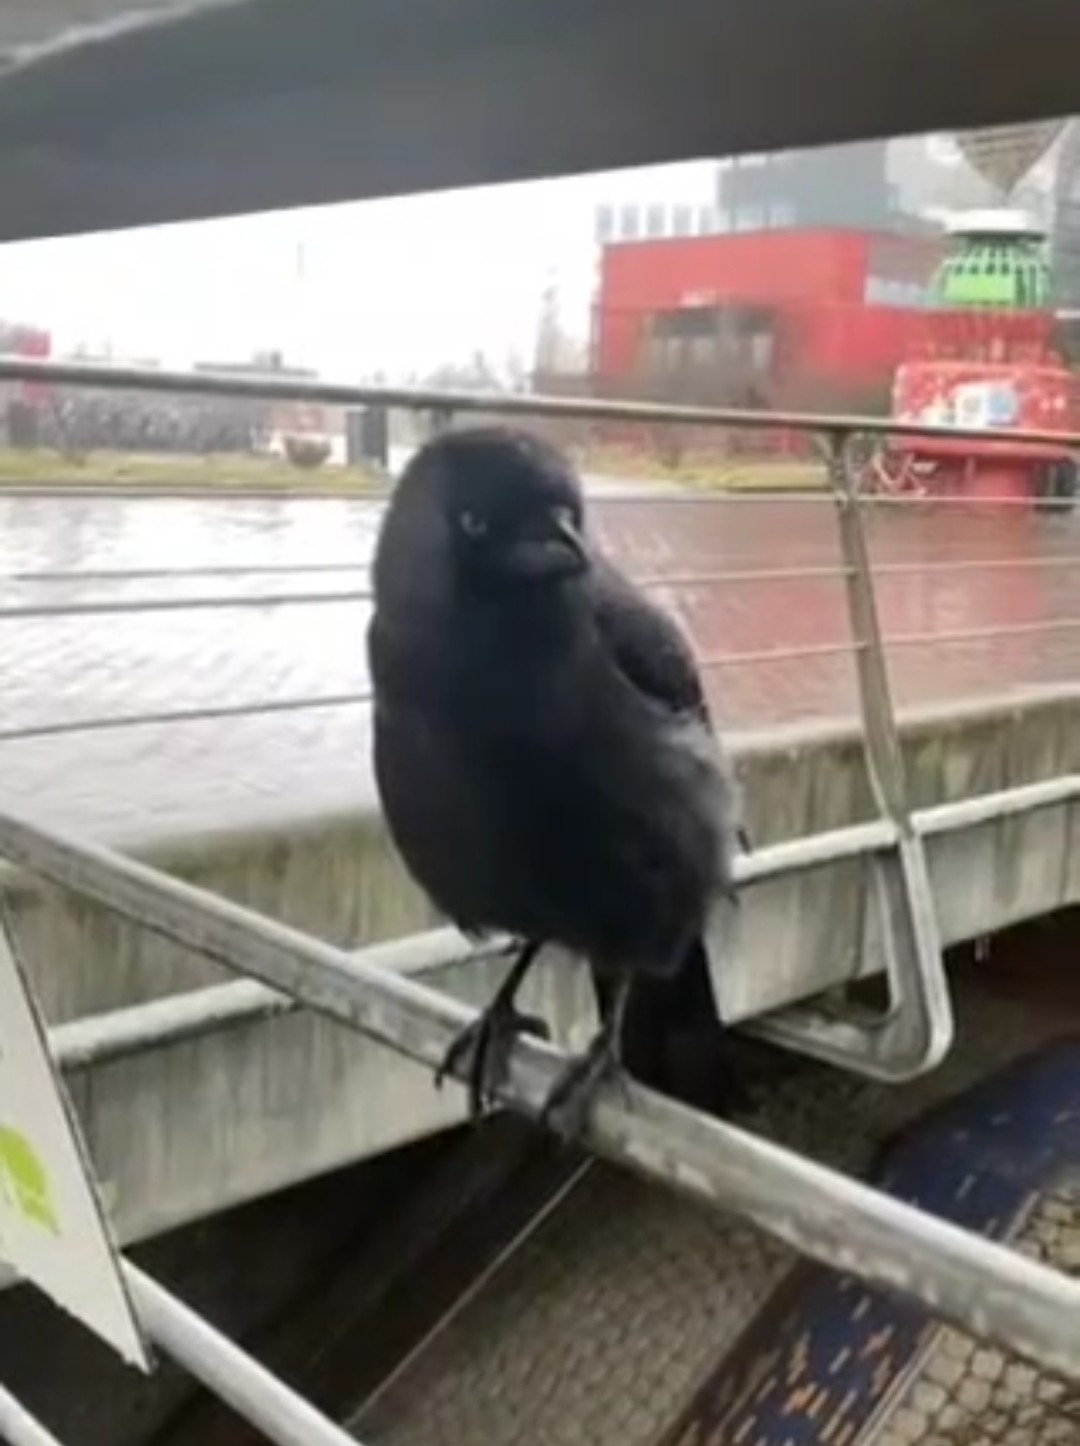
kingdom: Animalia
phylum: Chordata
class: Aves
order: Passeriformes
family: Corvidae
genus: Coloeus
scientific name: Coloeus monedula
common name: Western jackdaw
